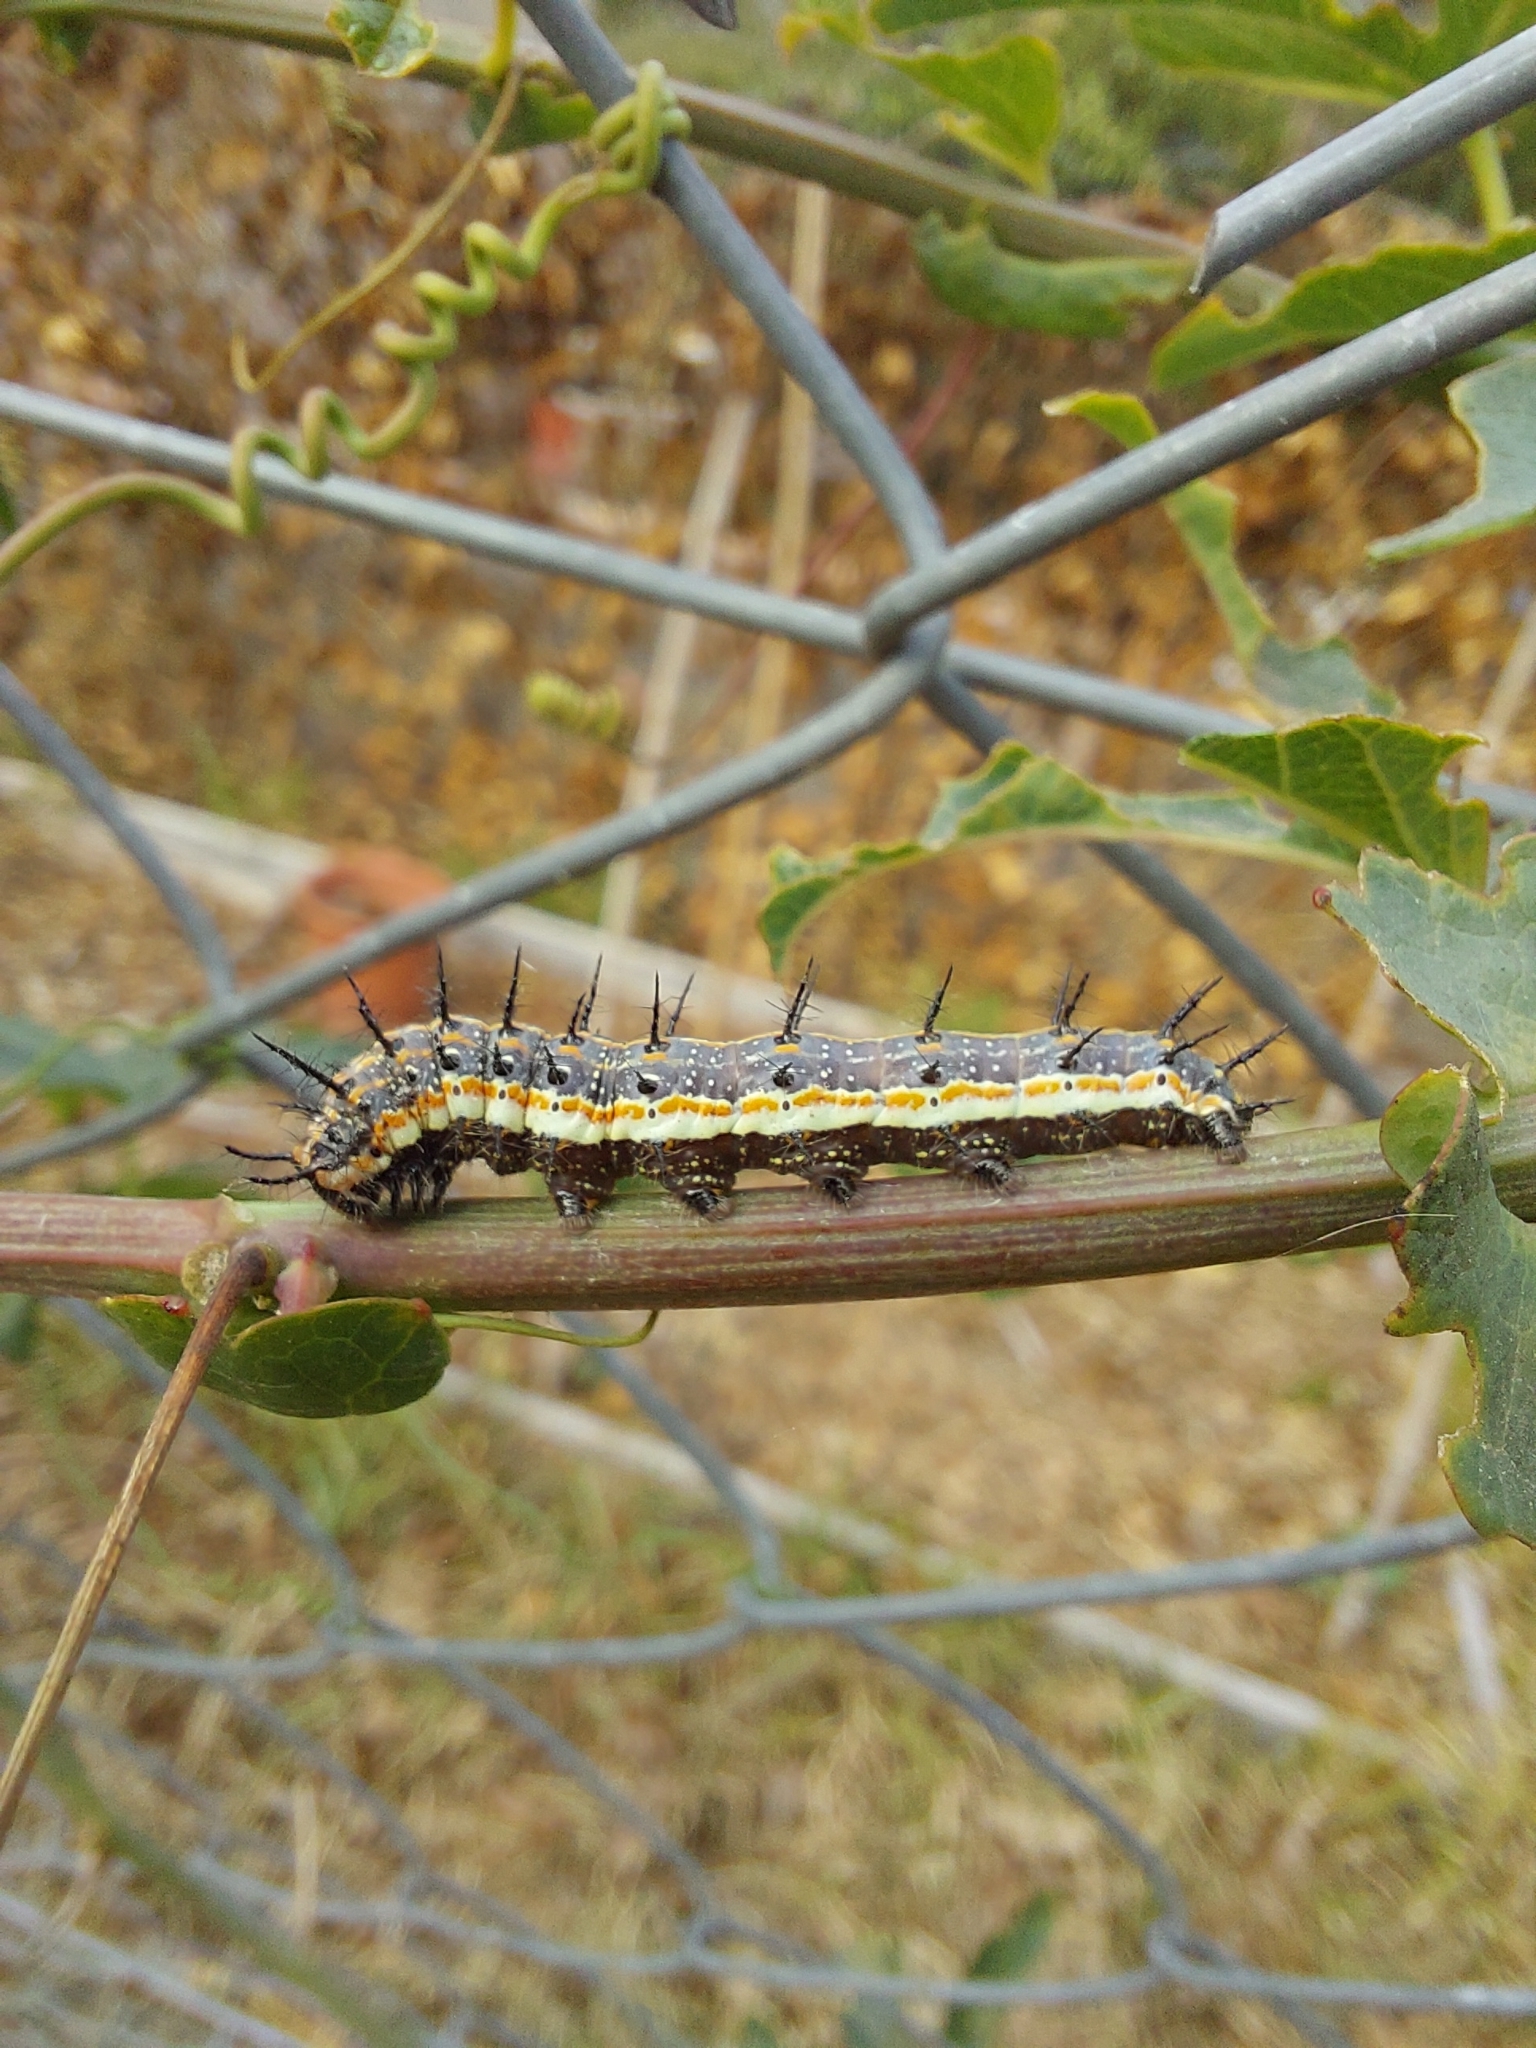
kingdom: Animalia
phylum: Arthropoda
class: Insecta
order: Lepidoptera
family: Nymphalidae
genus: Dione
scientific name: Dione vanillae
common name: Gulf fritillary
